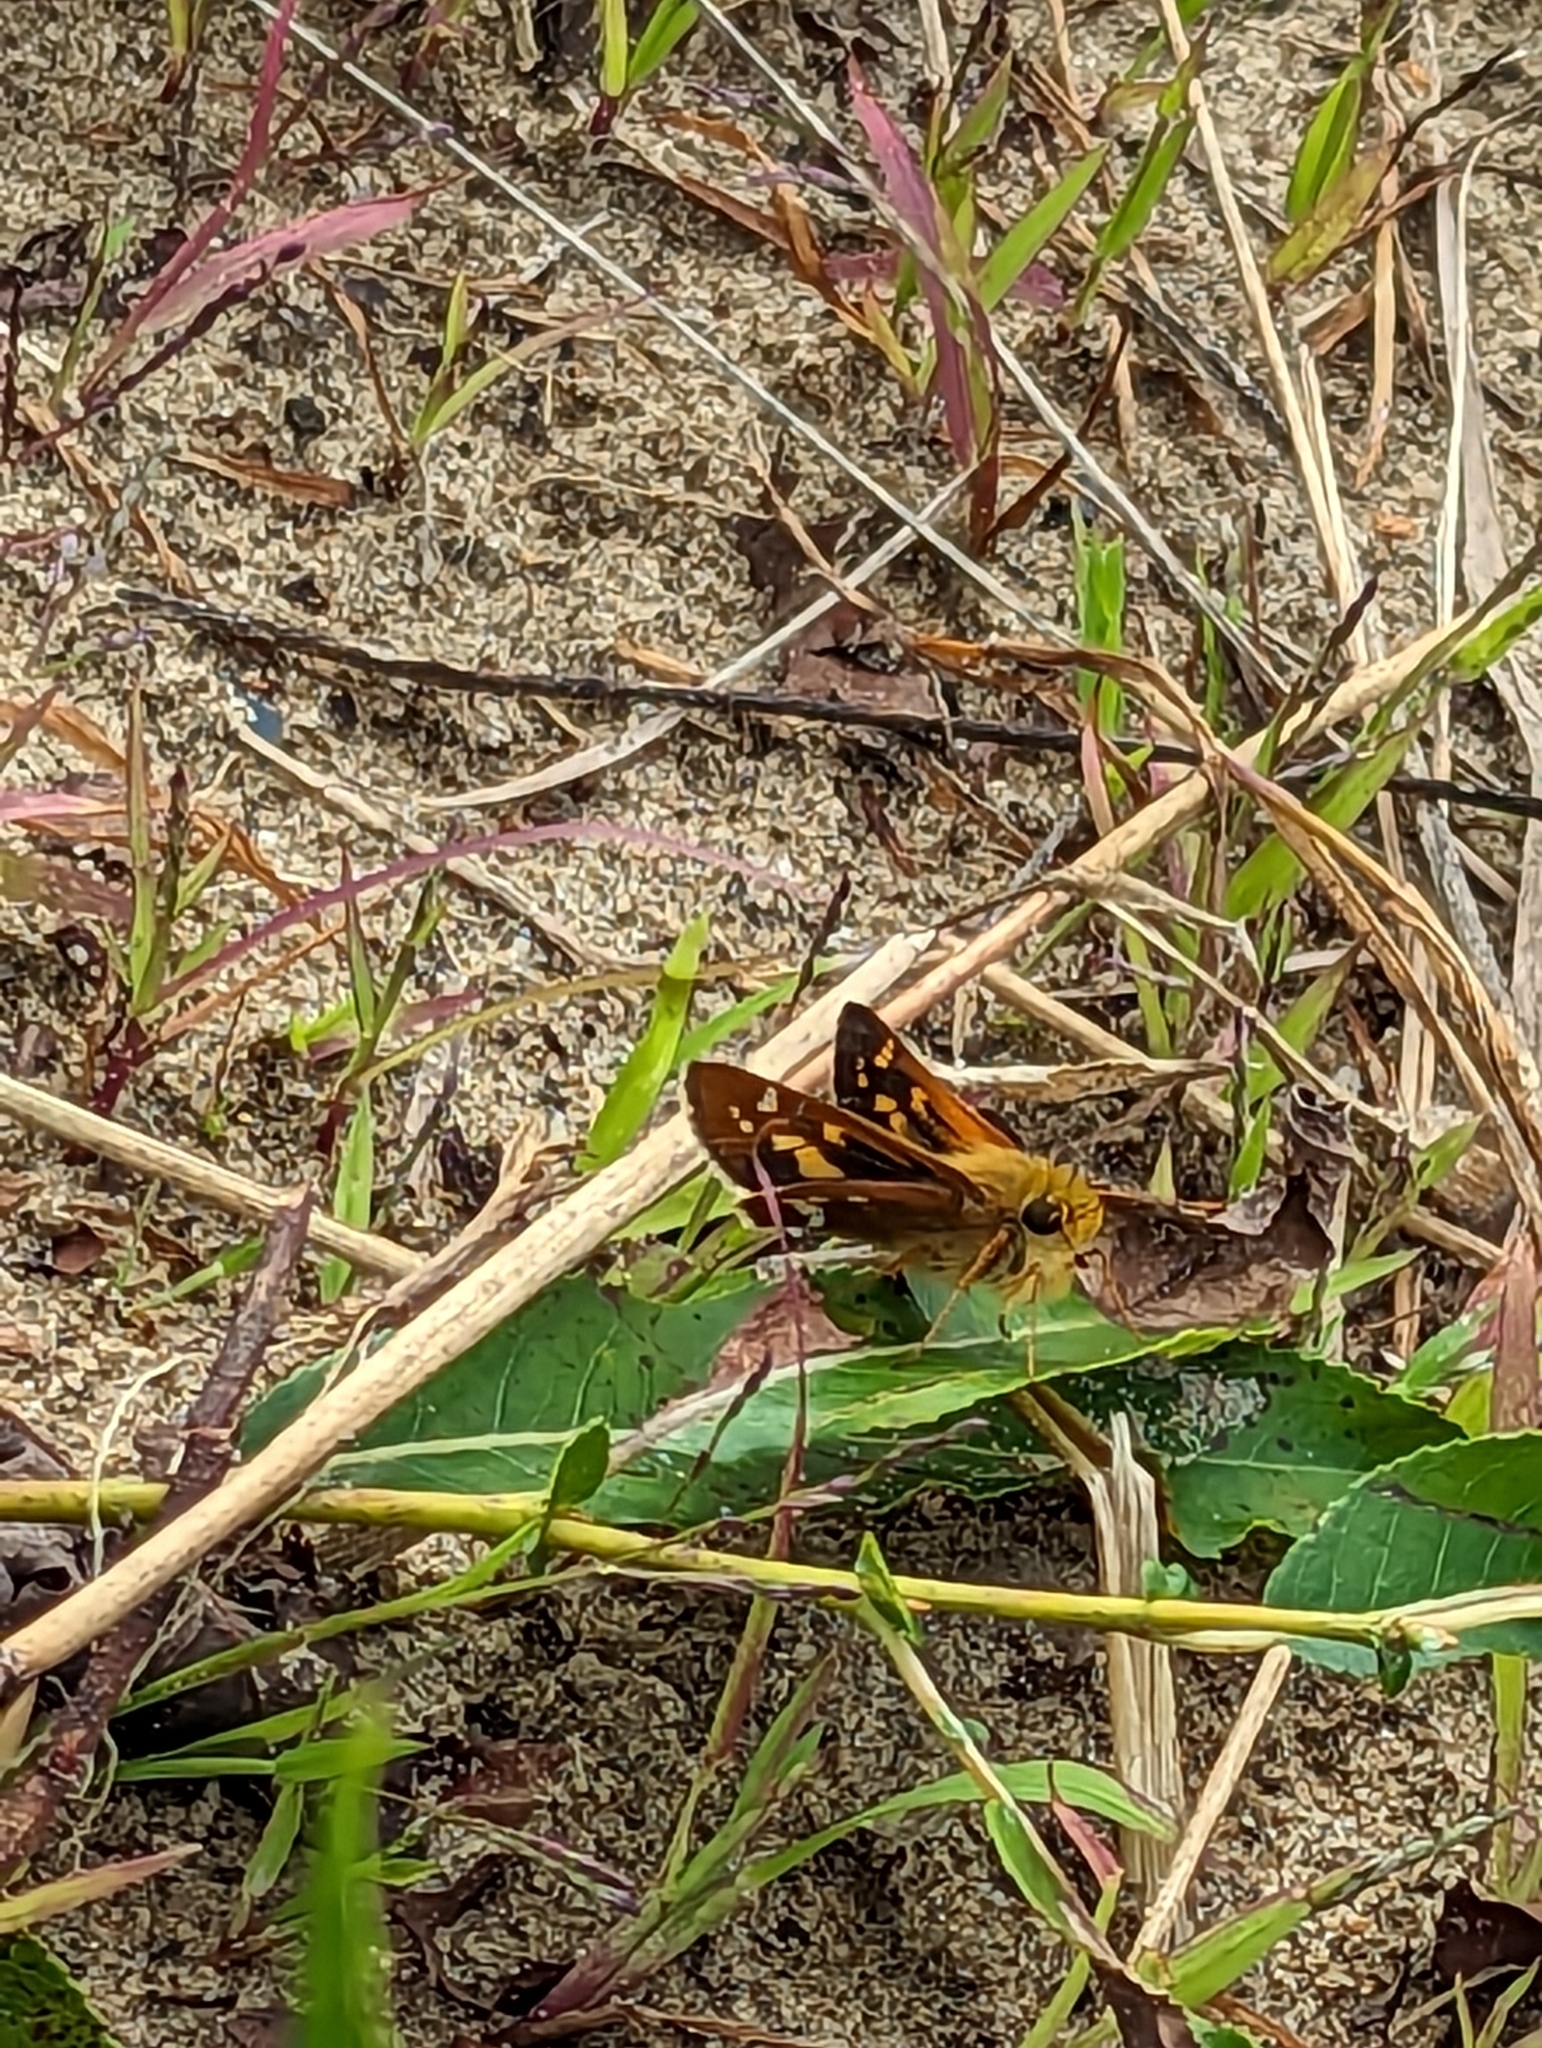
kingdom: Animalia
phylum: Arthropoda
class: Insecta
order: Lepidoptera
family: Hesperiidae
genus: Hesperia
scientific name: Hesperia leonardus
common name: Leonard's skipper
